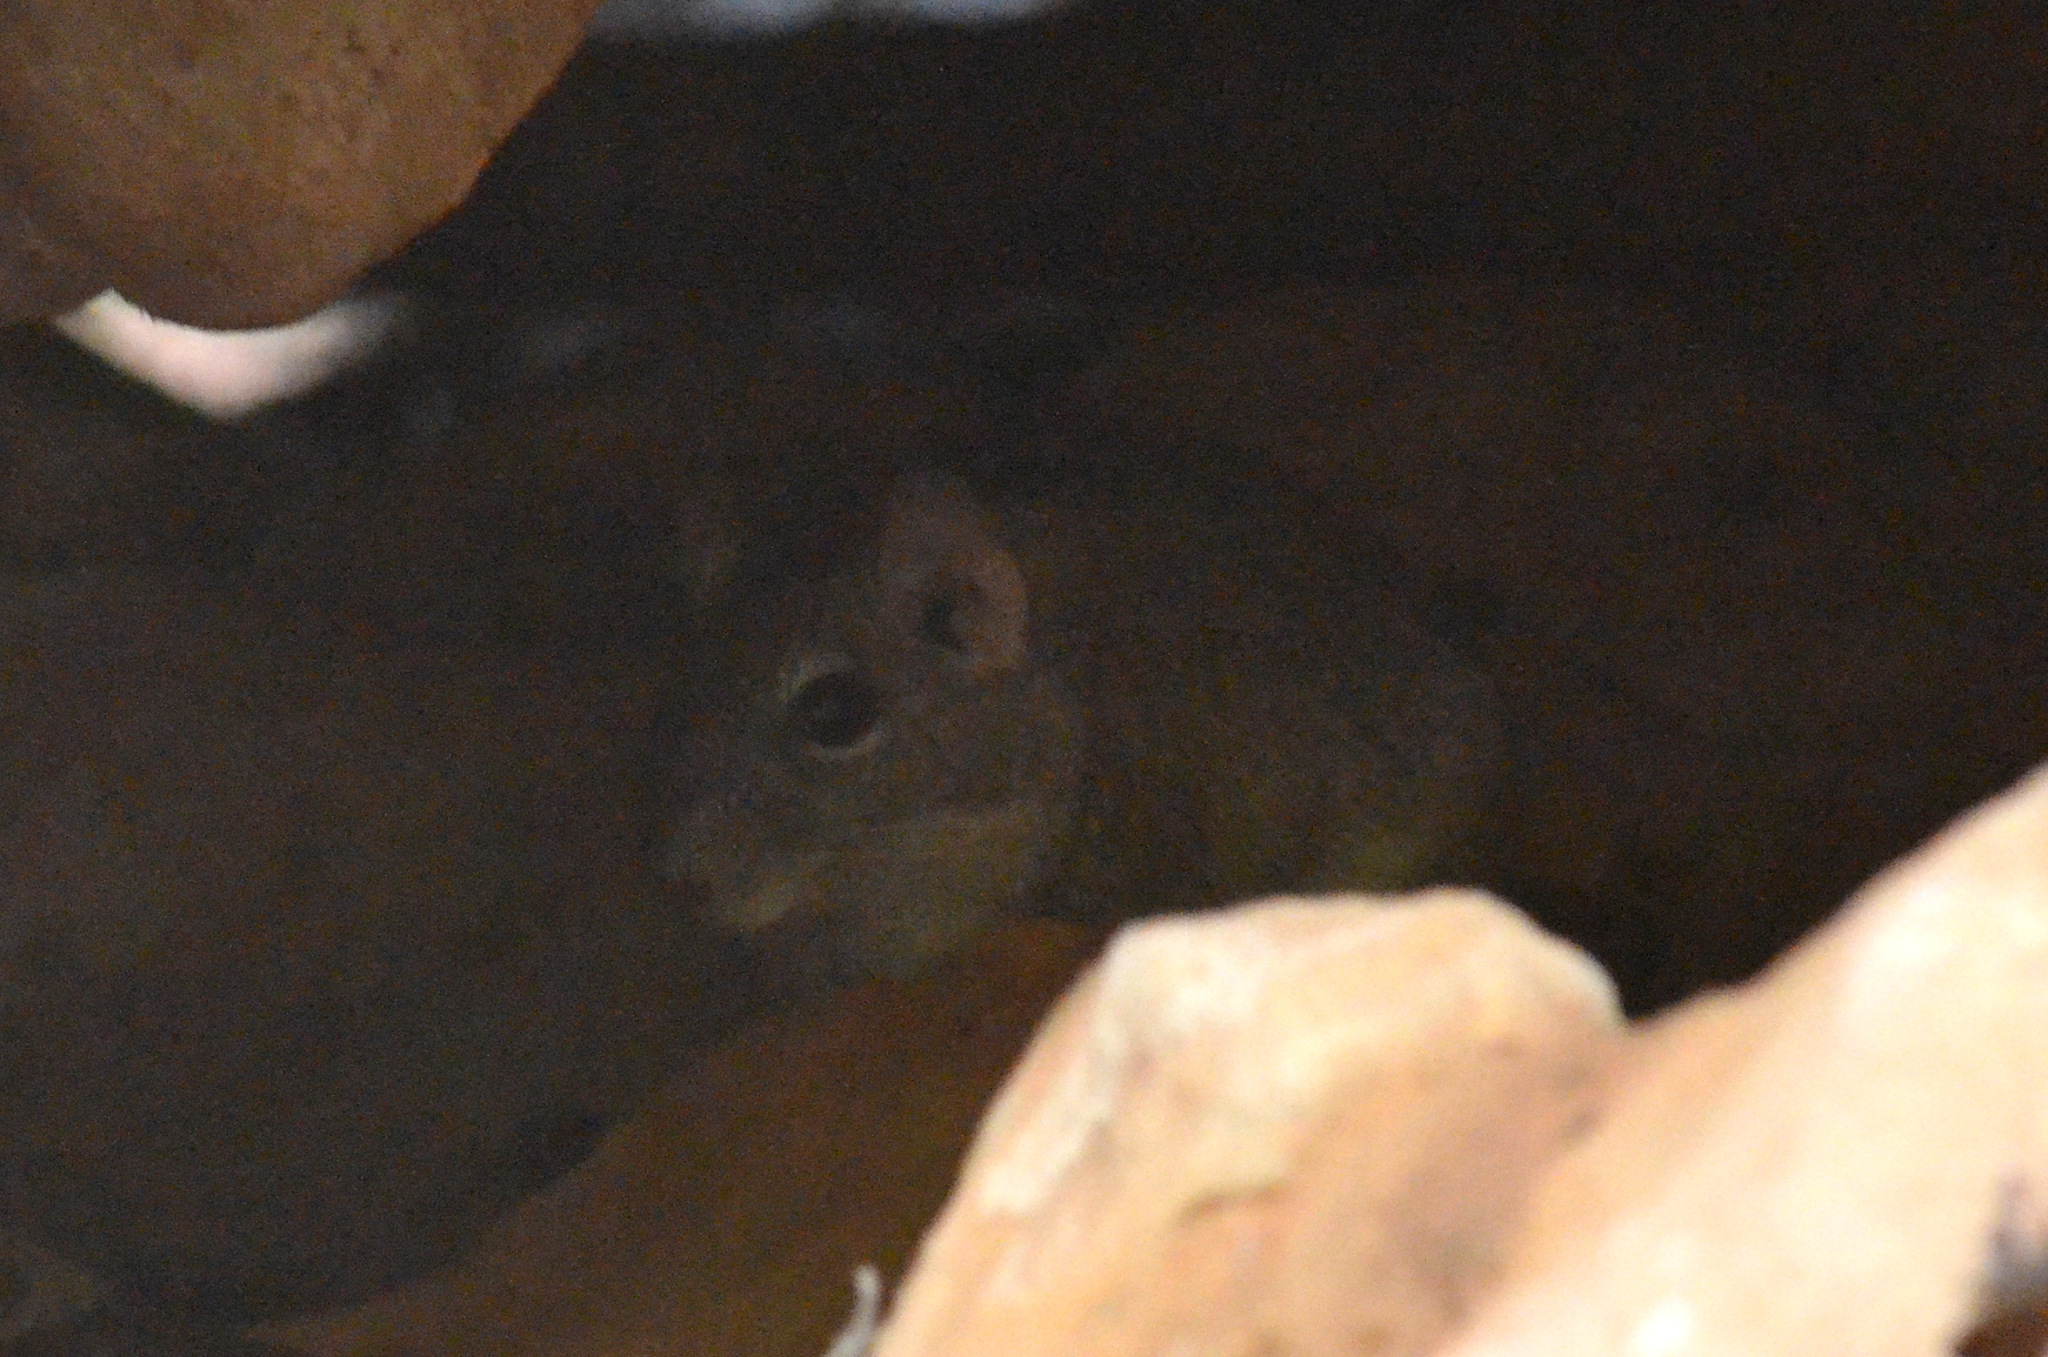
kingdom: Animalia
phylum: Chordata
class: Mammalia
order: Rodentia
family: Caviidae
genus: Galea
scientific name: Galea spixii
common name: Spix's yellow-toothed cavy
